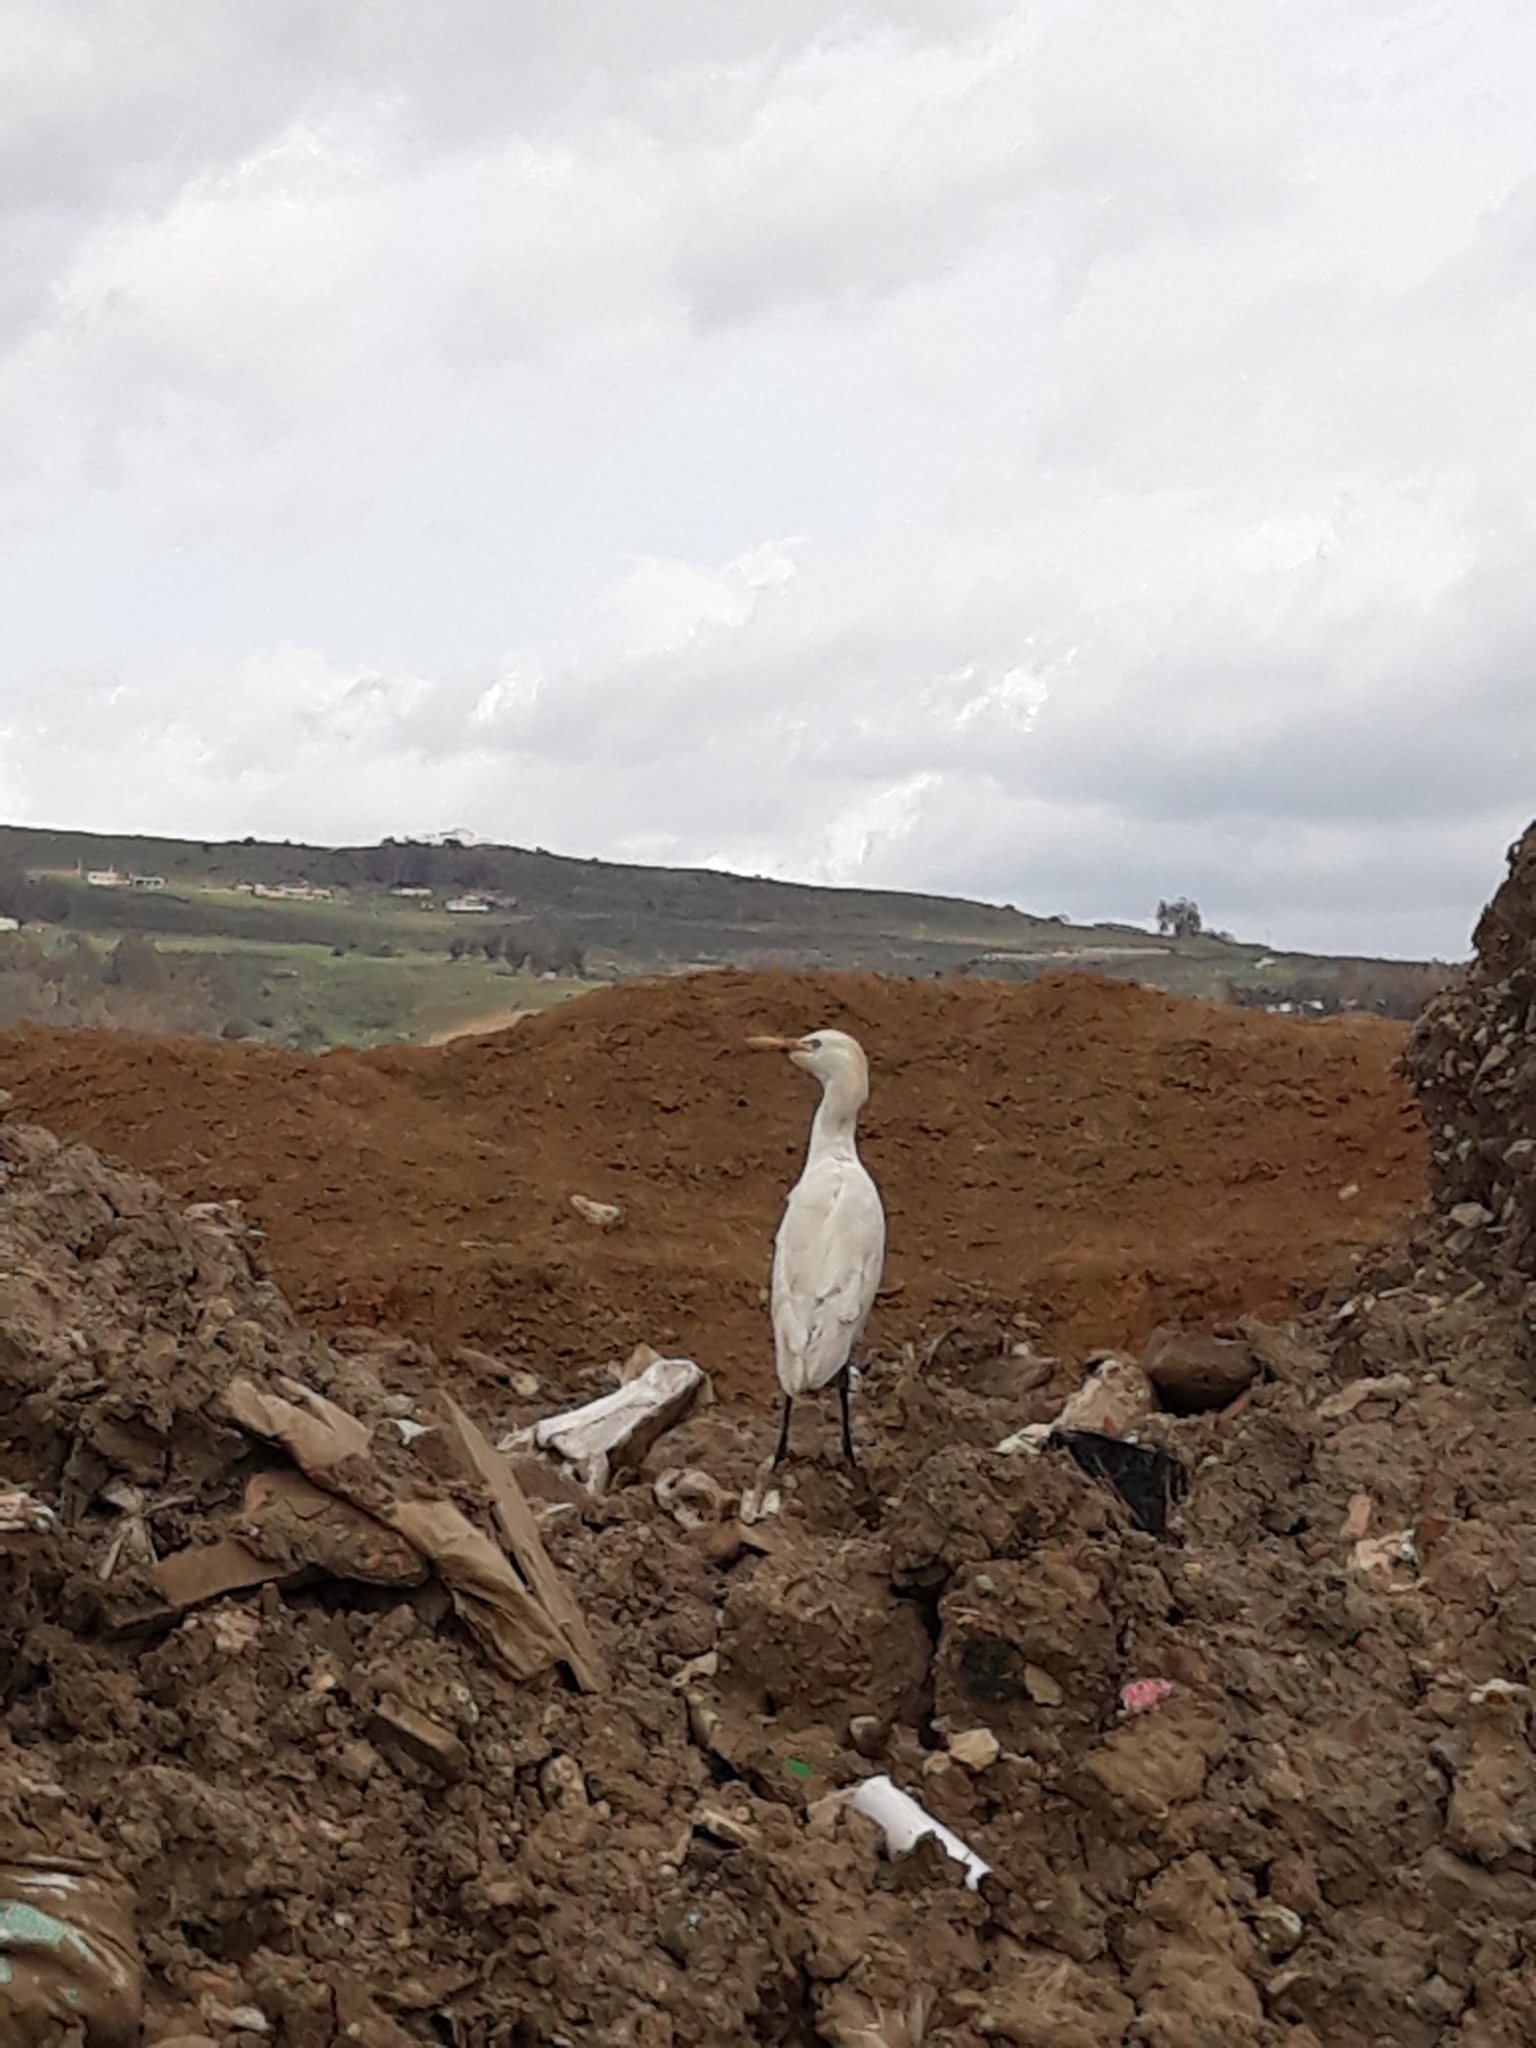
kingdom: Animalia
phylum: Chordata
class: Aves
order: Pelecaniformes
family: Ardeidae
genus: Bubulcus
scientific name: Bubulcus ibis
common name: Cattle egret
